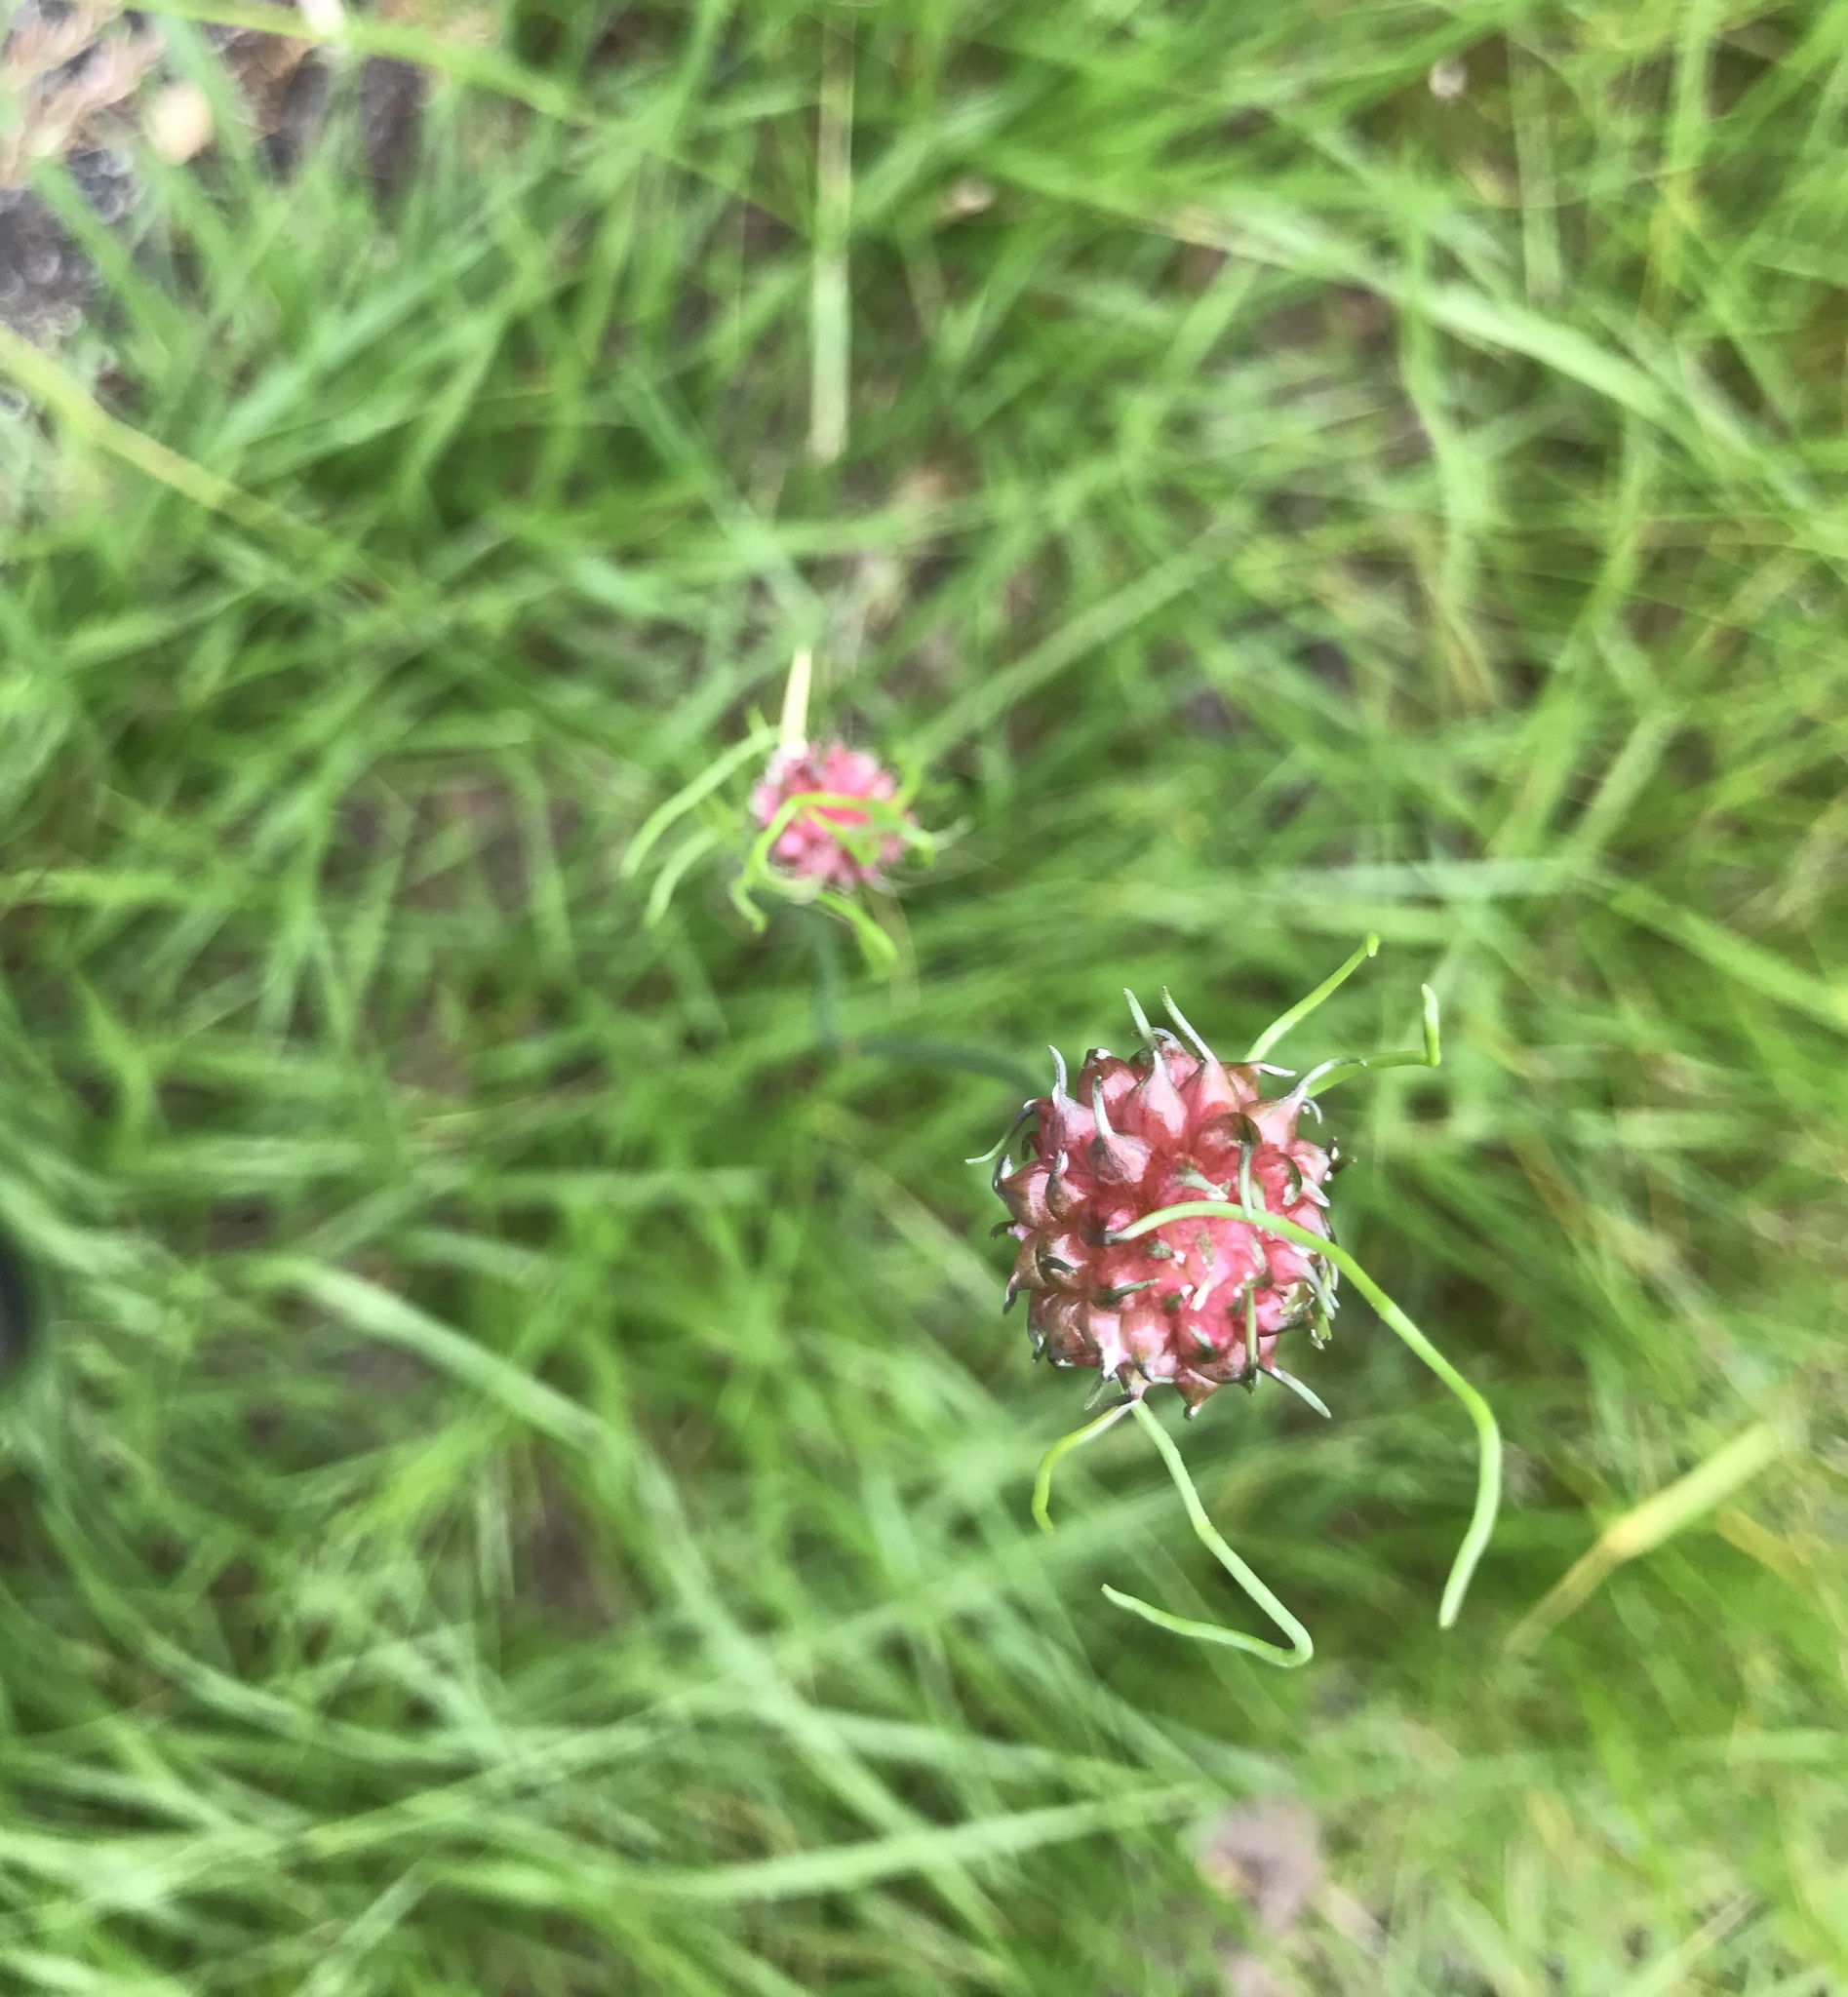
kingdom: Plantae
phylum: Tracheophyta
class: Liliopsida
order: Asparagales
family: Amaryllidaceae
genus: Allium
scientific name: Allium vineale
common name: Crow garlic
